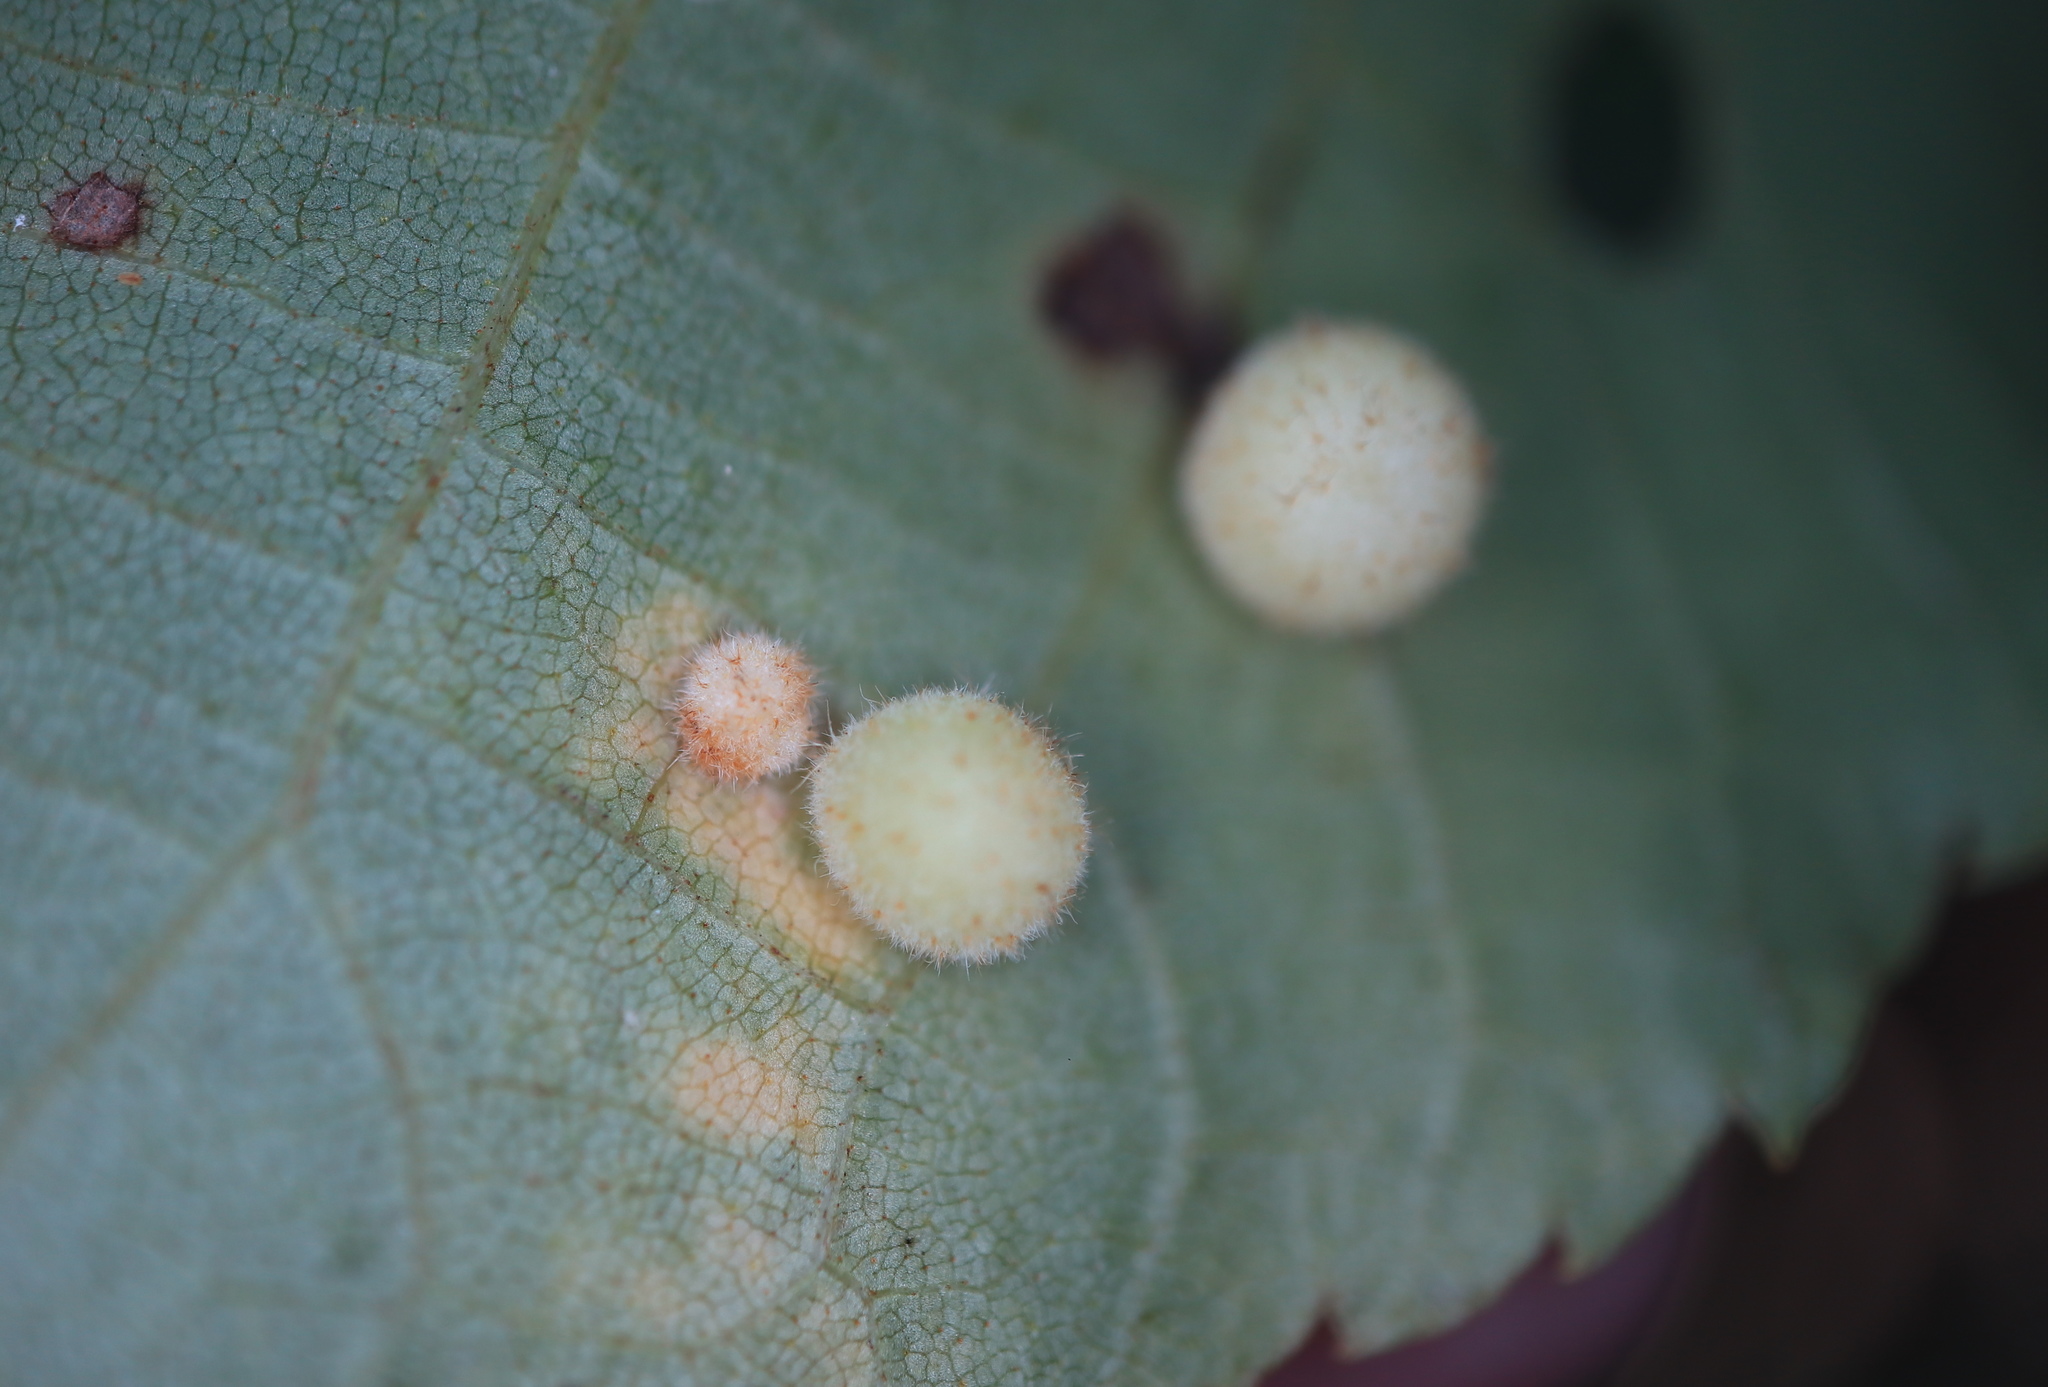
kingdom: Animalia
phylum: Arthropoda
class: Insecta
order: Diptera
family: Cecidomyiidae
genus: Caryomyia
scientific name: Caryomyia persicoides
